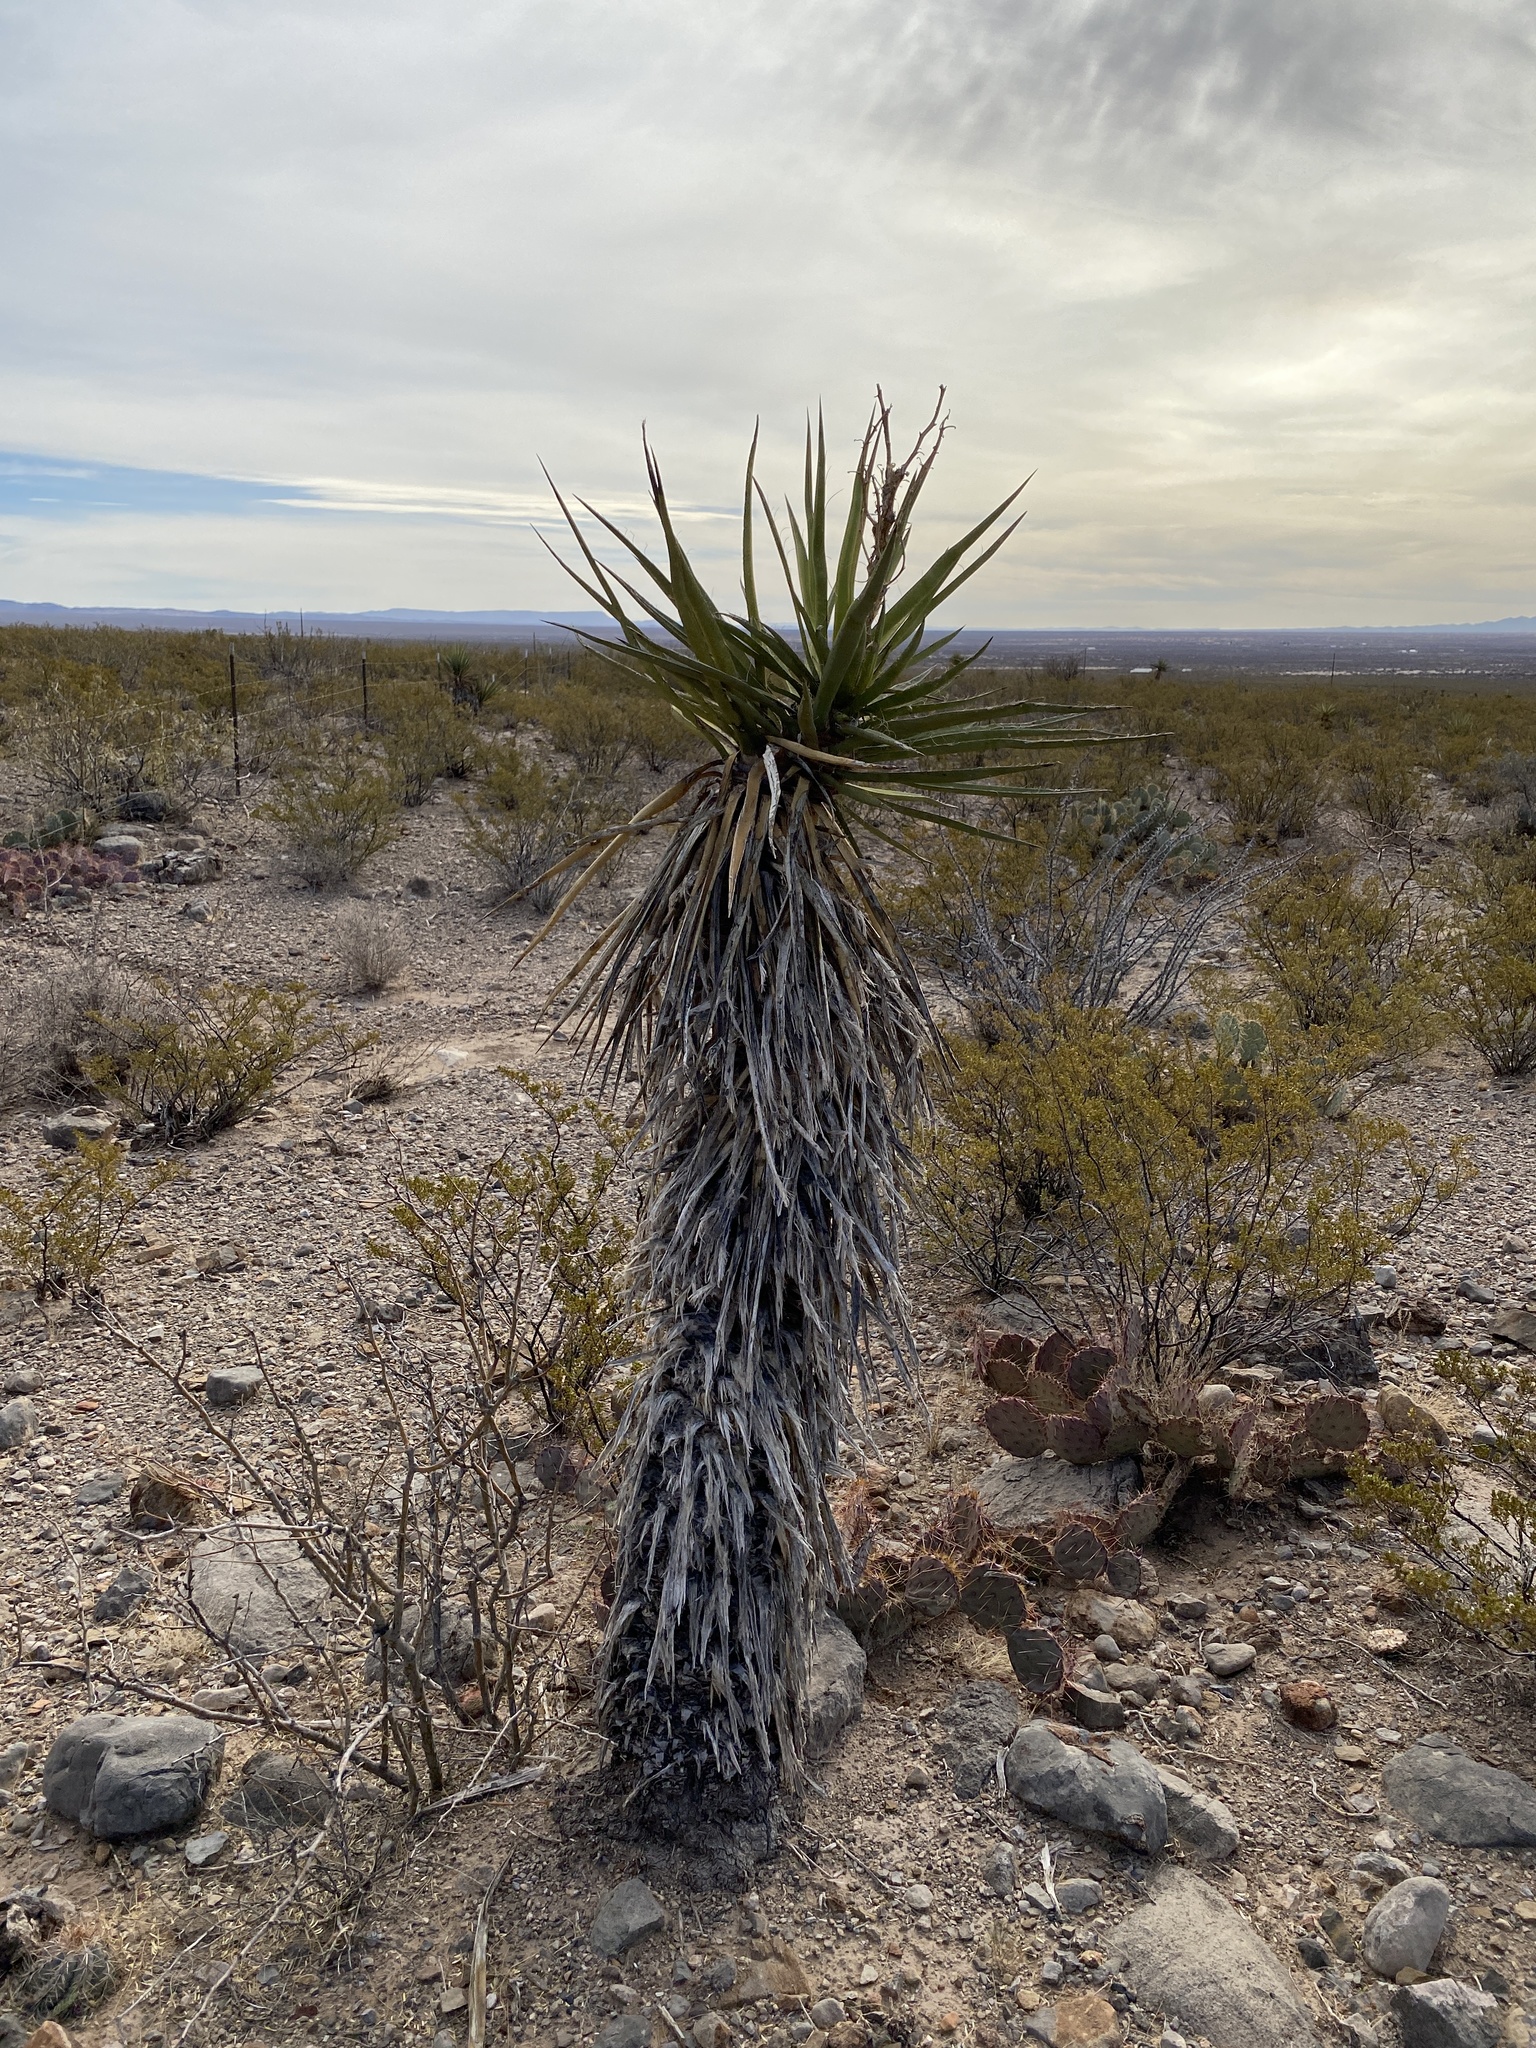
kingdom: Plantae
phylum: Tracheophyta
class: Liliopsida
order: Asparagales
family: Asparagaceae
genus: Yucca
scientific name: Yucca treculiana
